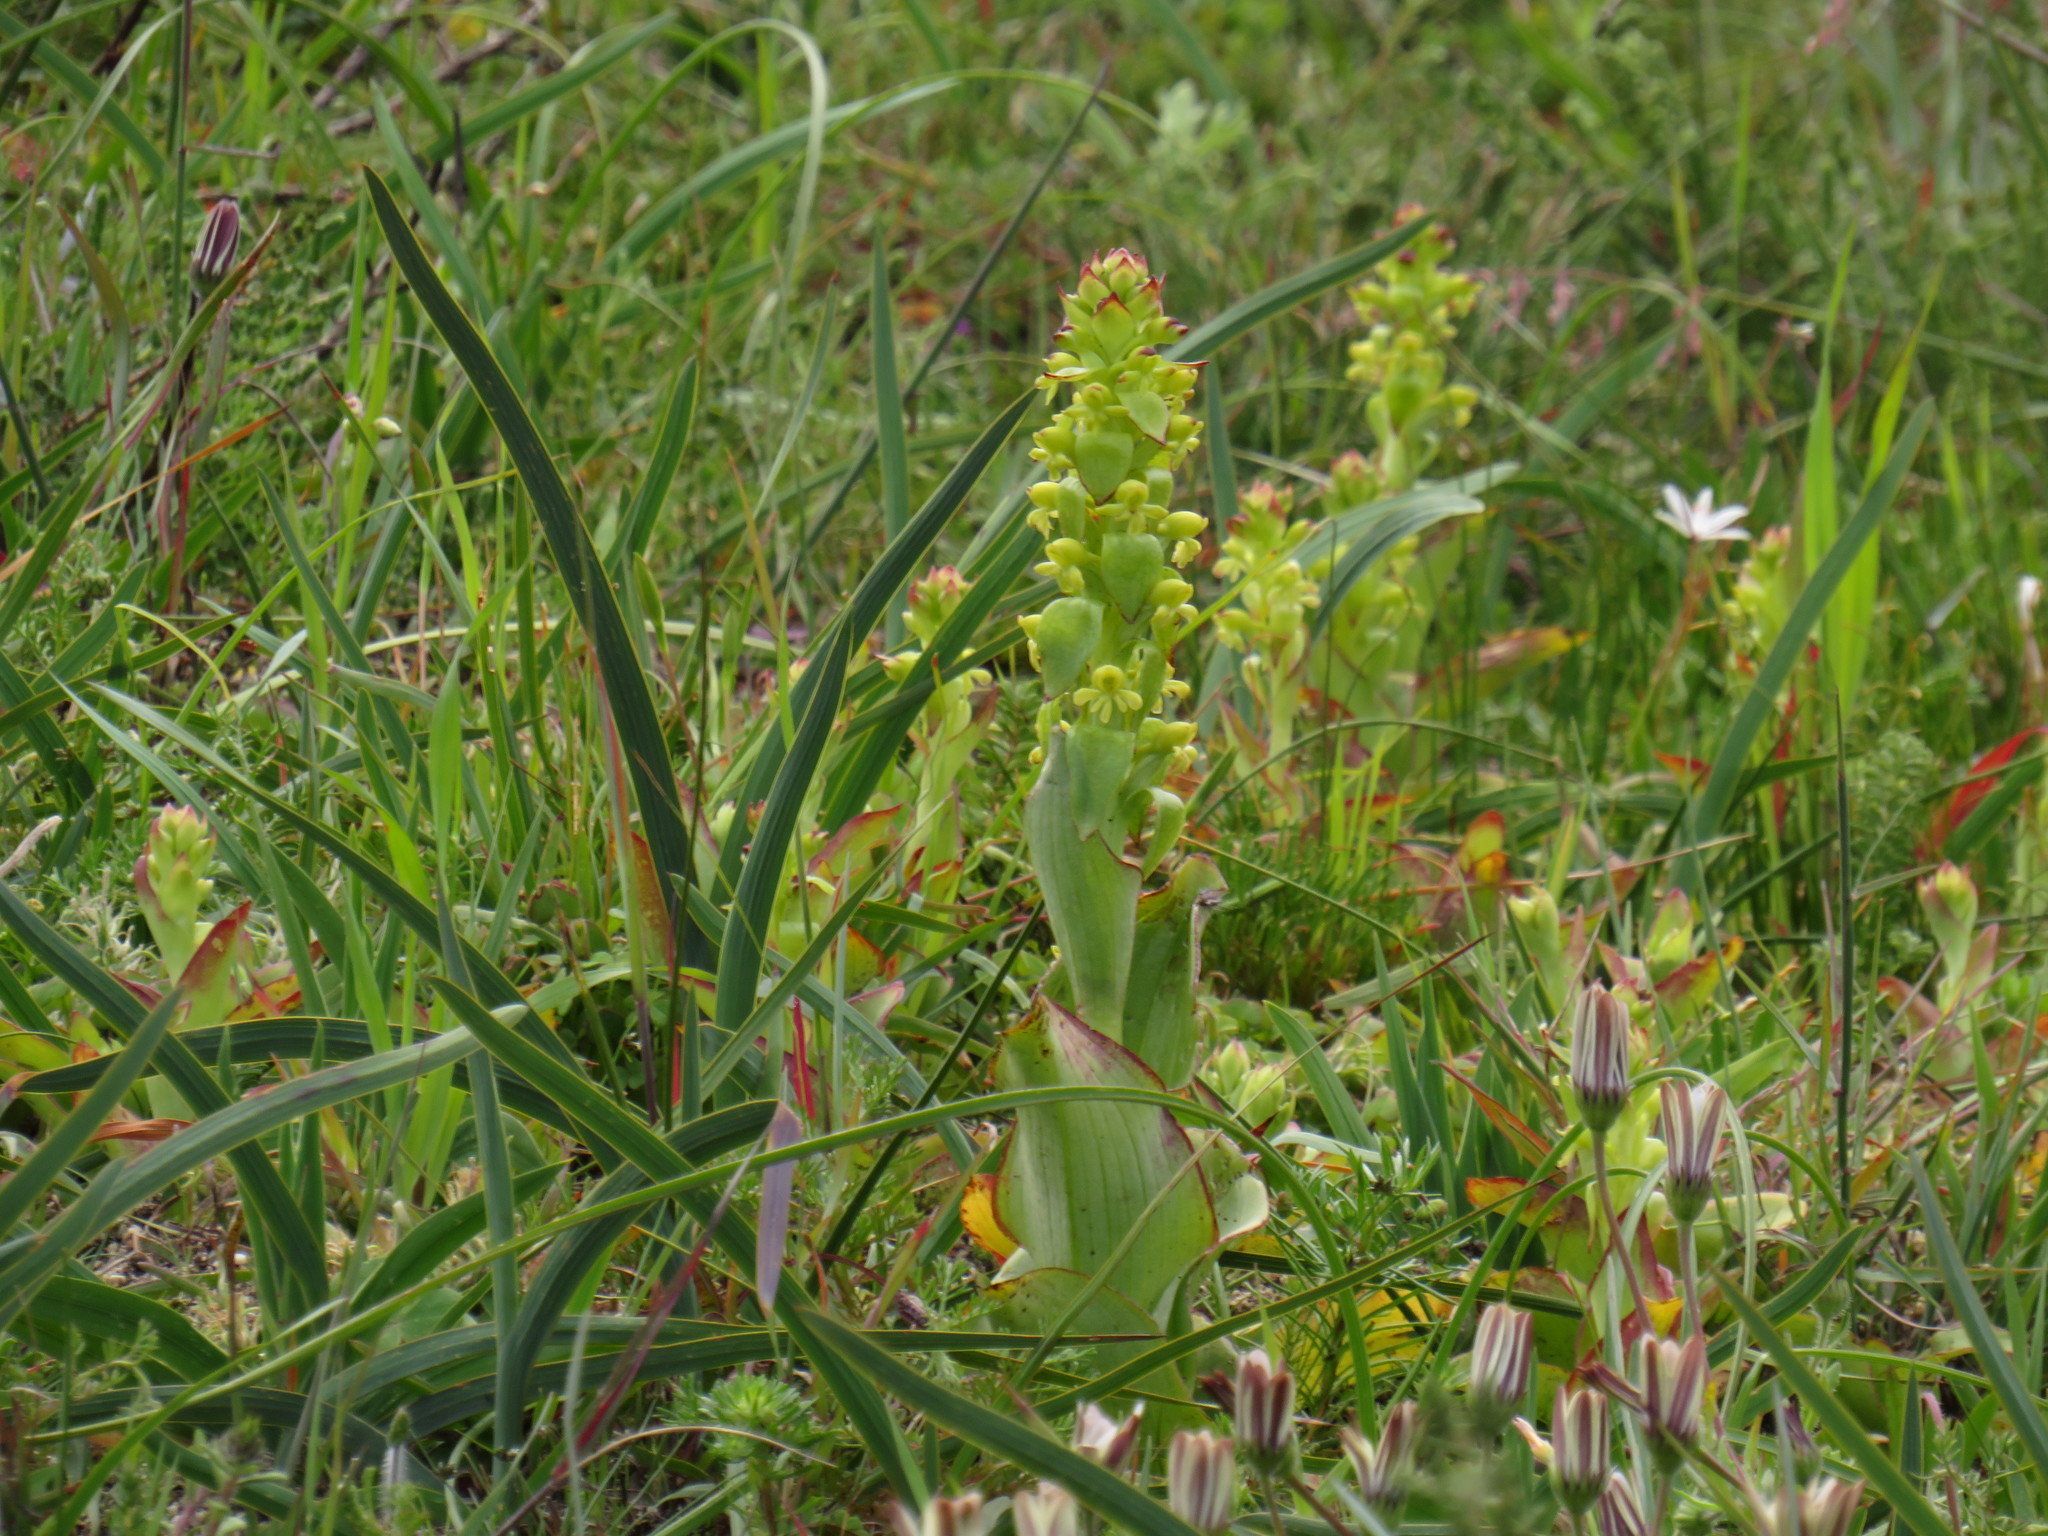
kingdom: Plantae
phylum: Tracheophyta
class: Liliopsida
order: Asparagales
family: Orchidaceae
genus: Satyrium
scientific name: Satyrium odorum
